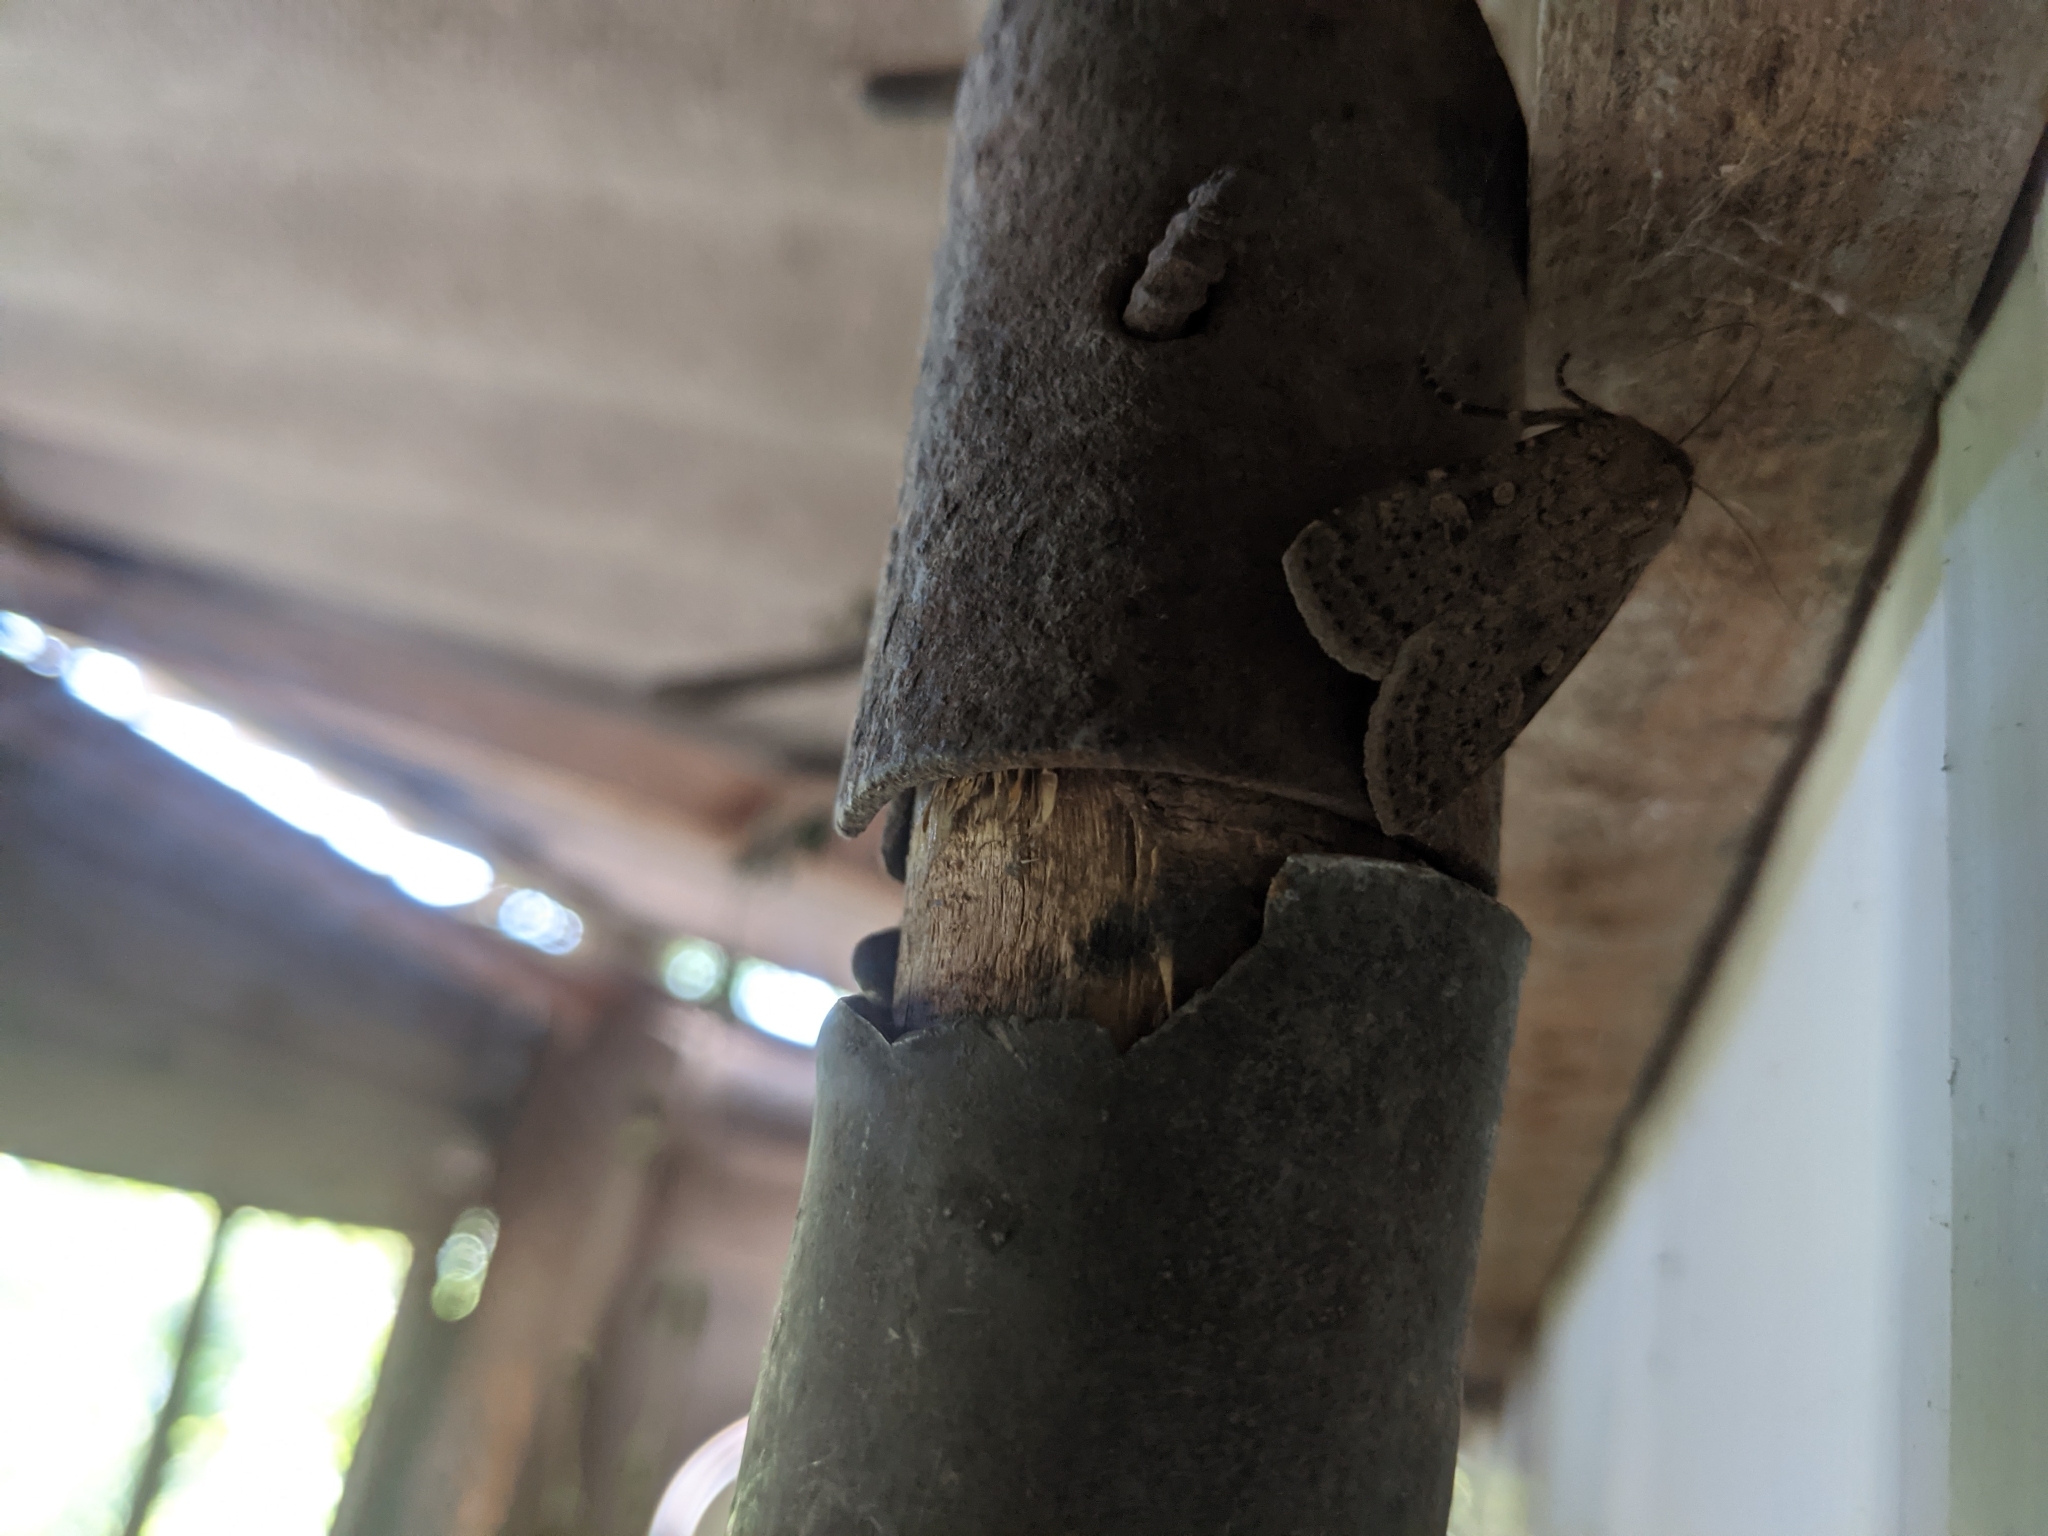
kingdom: Animalia
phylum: Arthropoda
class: Insecta
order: Lepidoptera
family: Noctuidae
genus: Rhyacia
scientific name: Rhyacia simulans
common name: Dotted rustic
